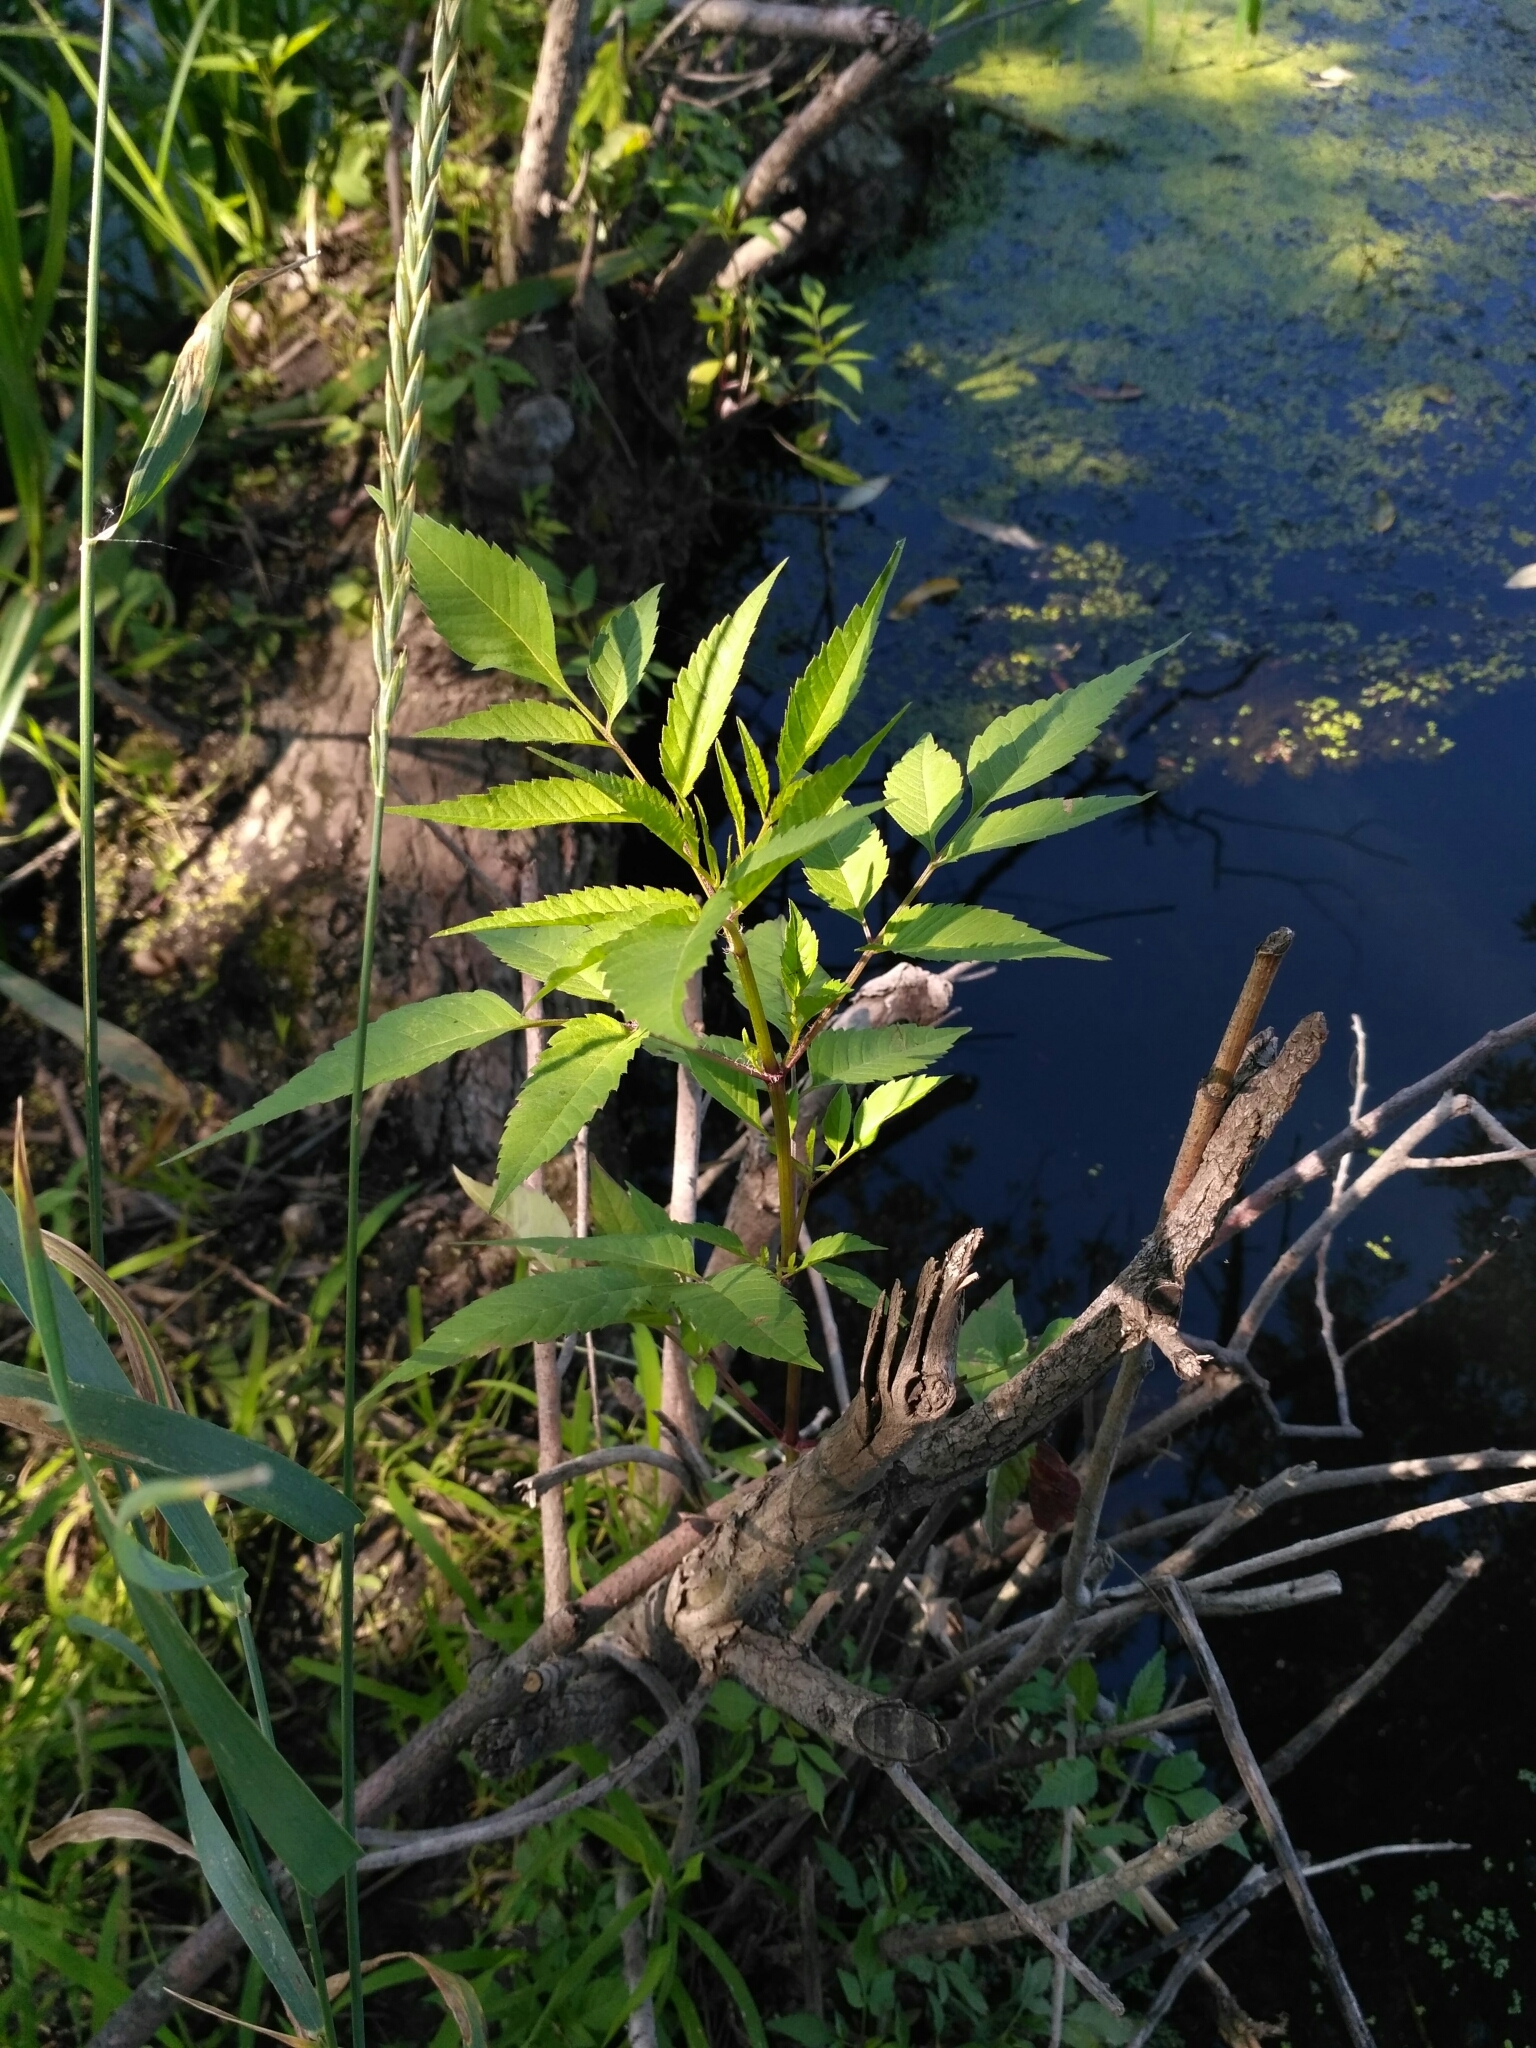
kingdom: Plantae
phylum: Tracheophyta
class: Magnoliopsida
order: Asterales
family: Asteraceae
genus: Bidens
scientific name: Bidens frondosa
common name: Beggarticks
